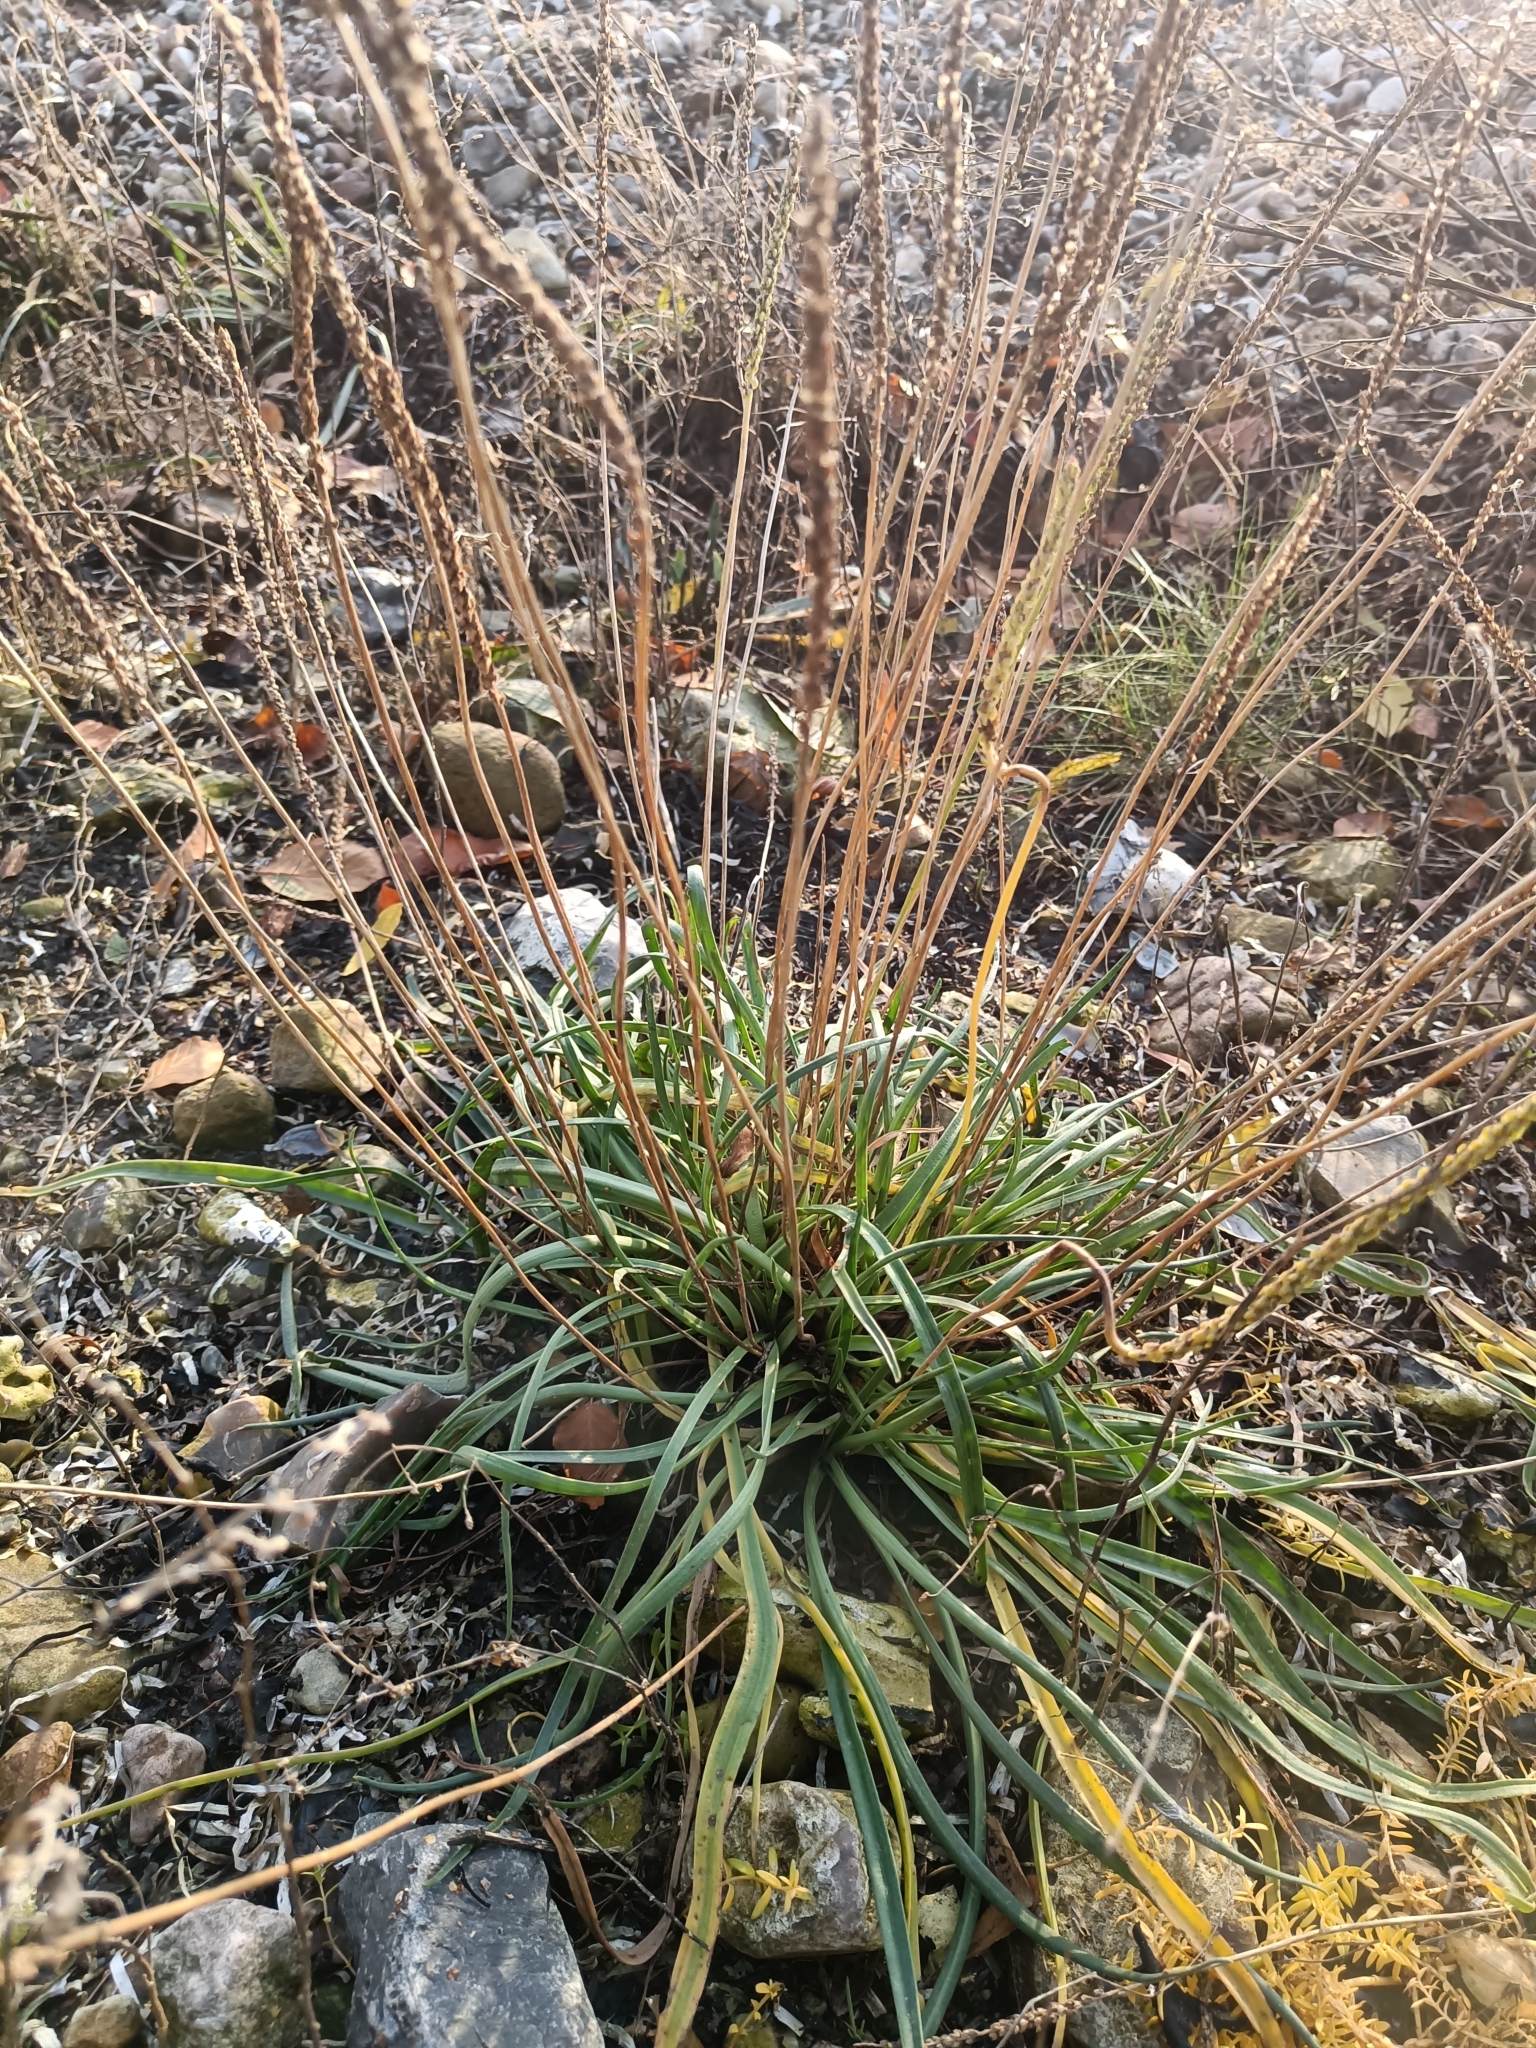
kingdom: Plantae
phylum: Tracheophyta
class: Magnoliopsida
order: Lamiales
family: Plantaginaceae
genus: Plantago
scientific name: Plantago maritima
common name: Sea plantain
